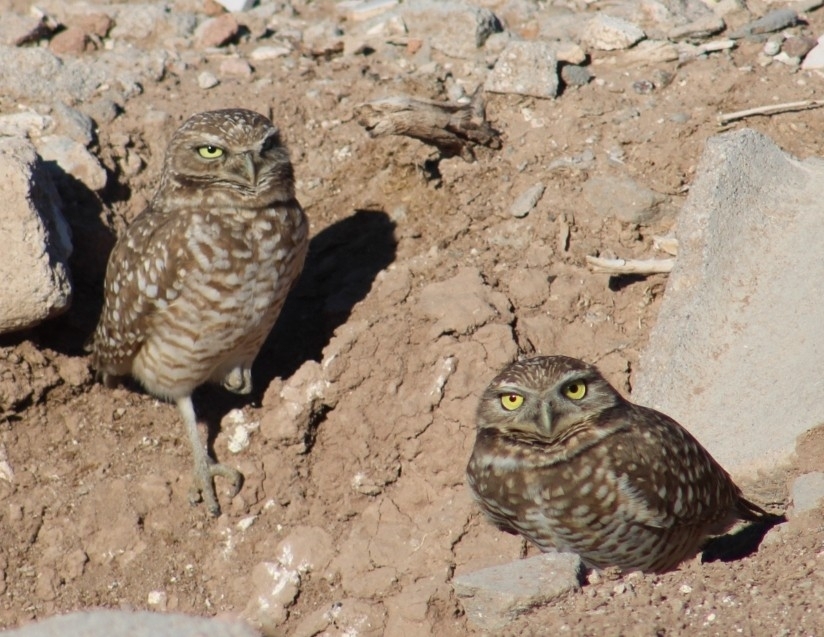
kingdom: Animalia
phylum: Chordata
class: Aves
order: Strigiformes
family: Strigidae
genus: Athene
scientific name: Athene cunicularia
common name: Burrowing owl
